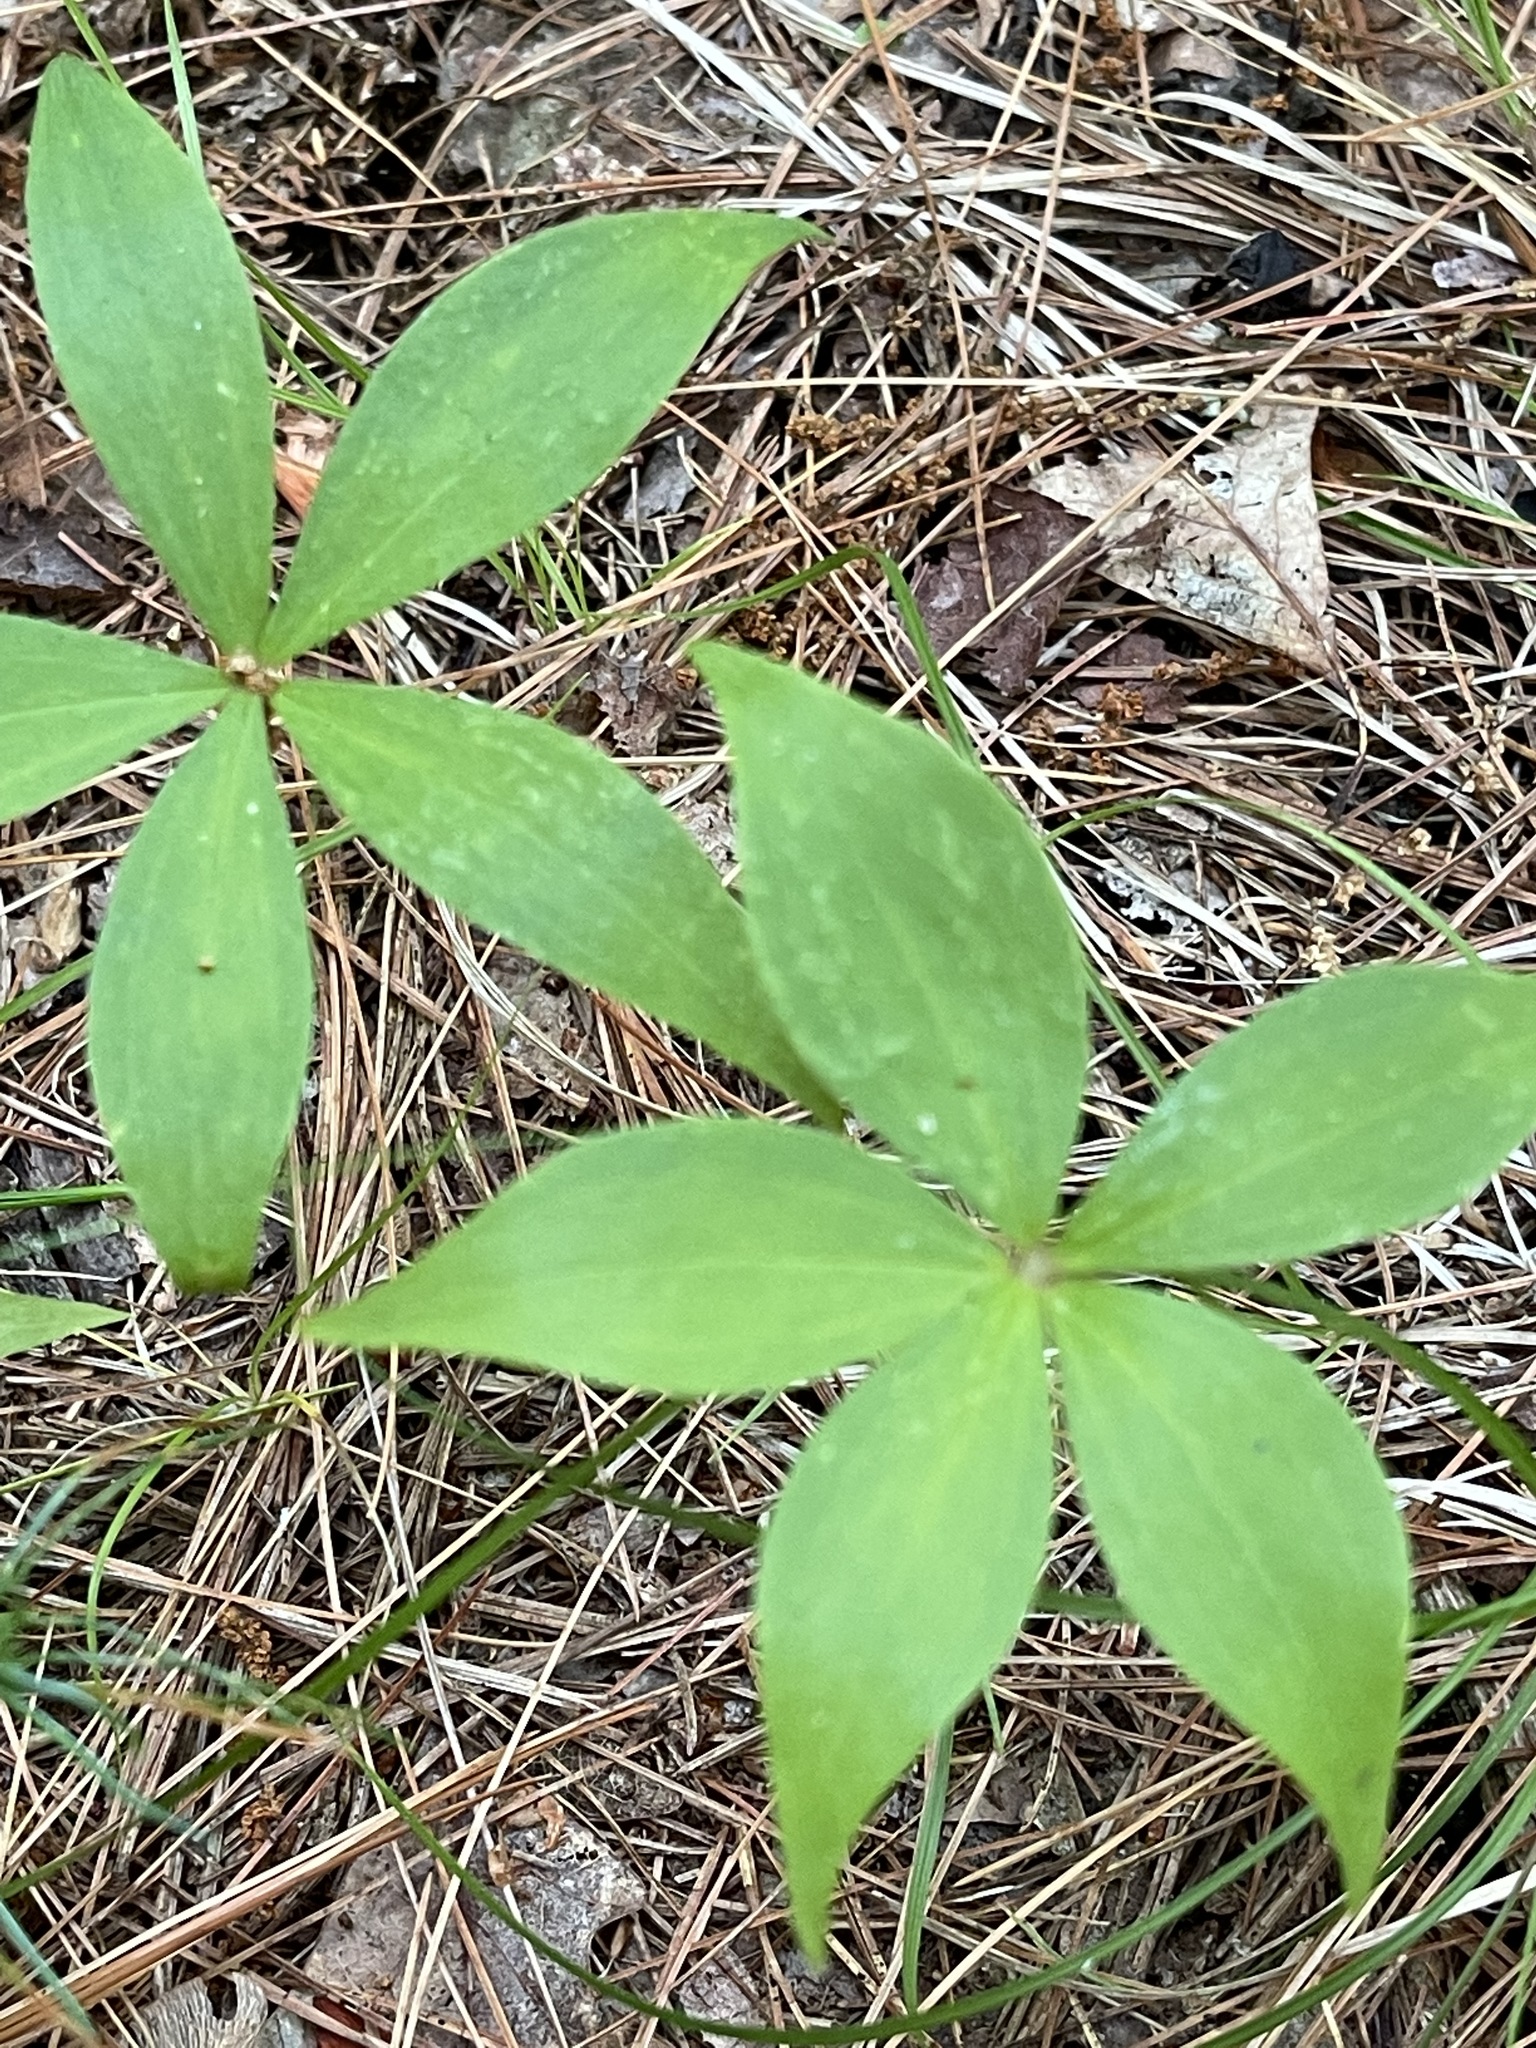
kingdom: Plantae
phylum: Tracheophyta
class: Liliopsida
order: Liliales
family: Liliaceae
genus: Medeola
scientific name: Medeola virginiana
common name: Indian cucumber-root
